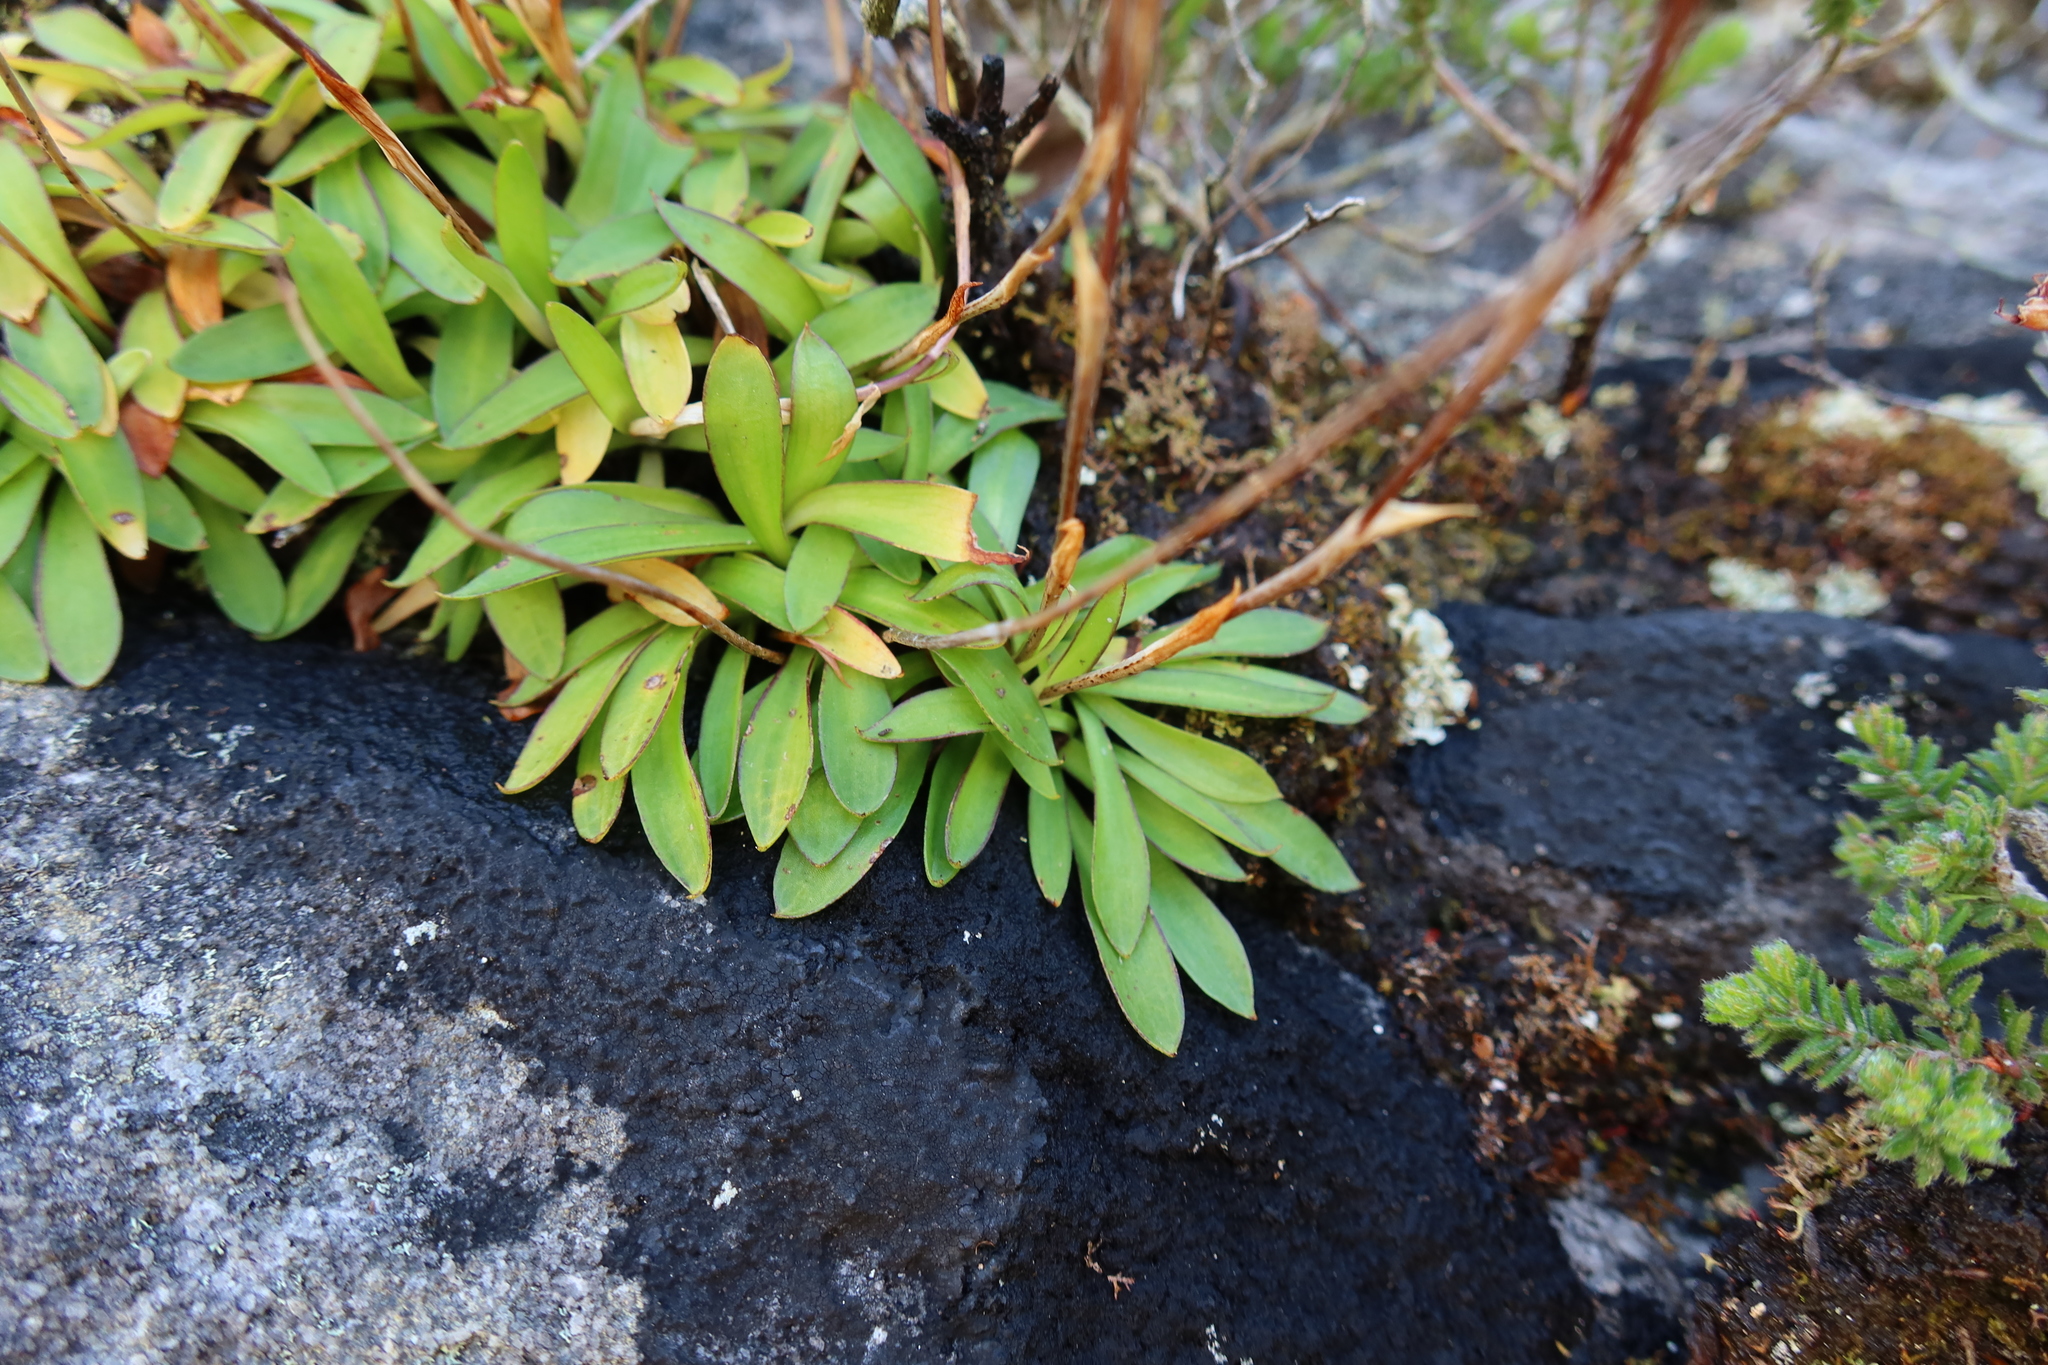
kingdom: Plantae
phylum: Tracheophyta
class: Liliopsida
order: Asparagales
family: Orchidaceae
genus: Disa
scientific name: Disa maculata
